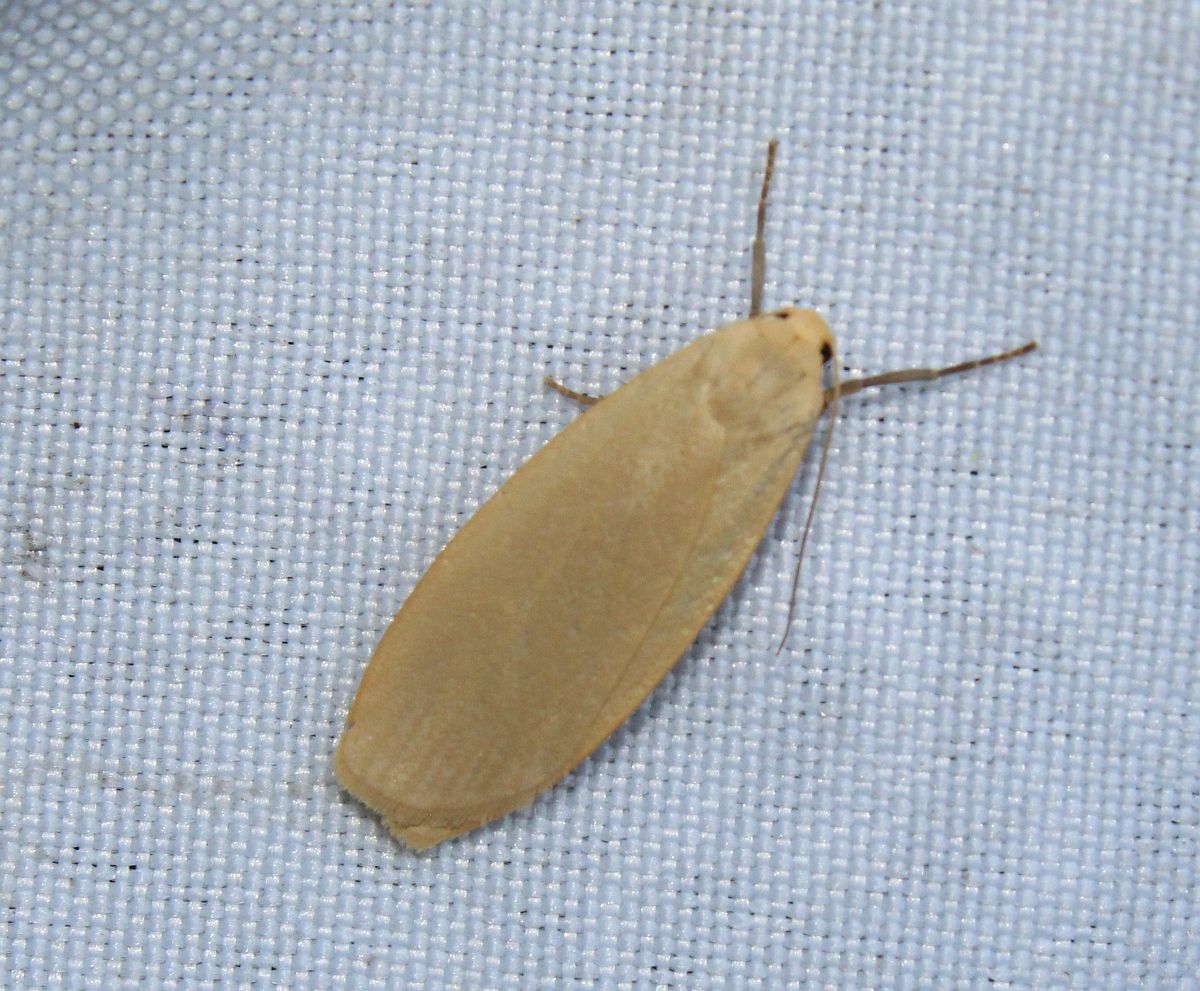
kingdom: Animalia
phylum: Arthropoda
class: Insecta
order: Lepidoptera
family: Erebidae
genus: Collita
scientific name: Collita griseola
